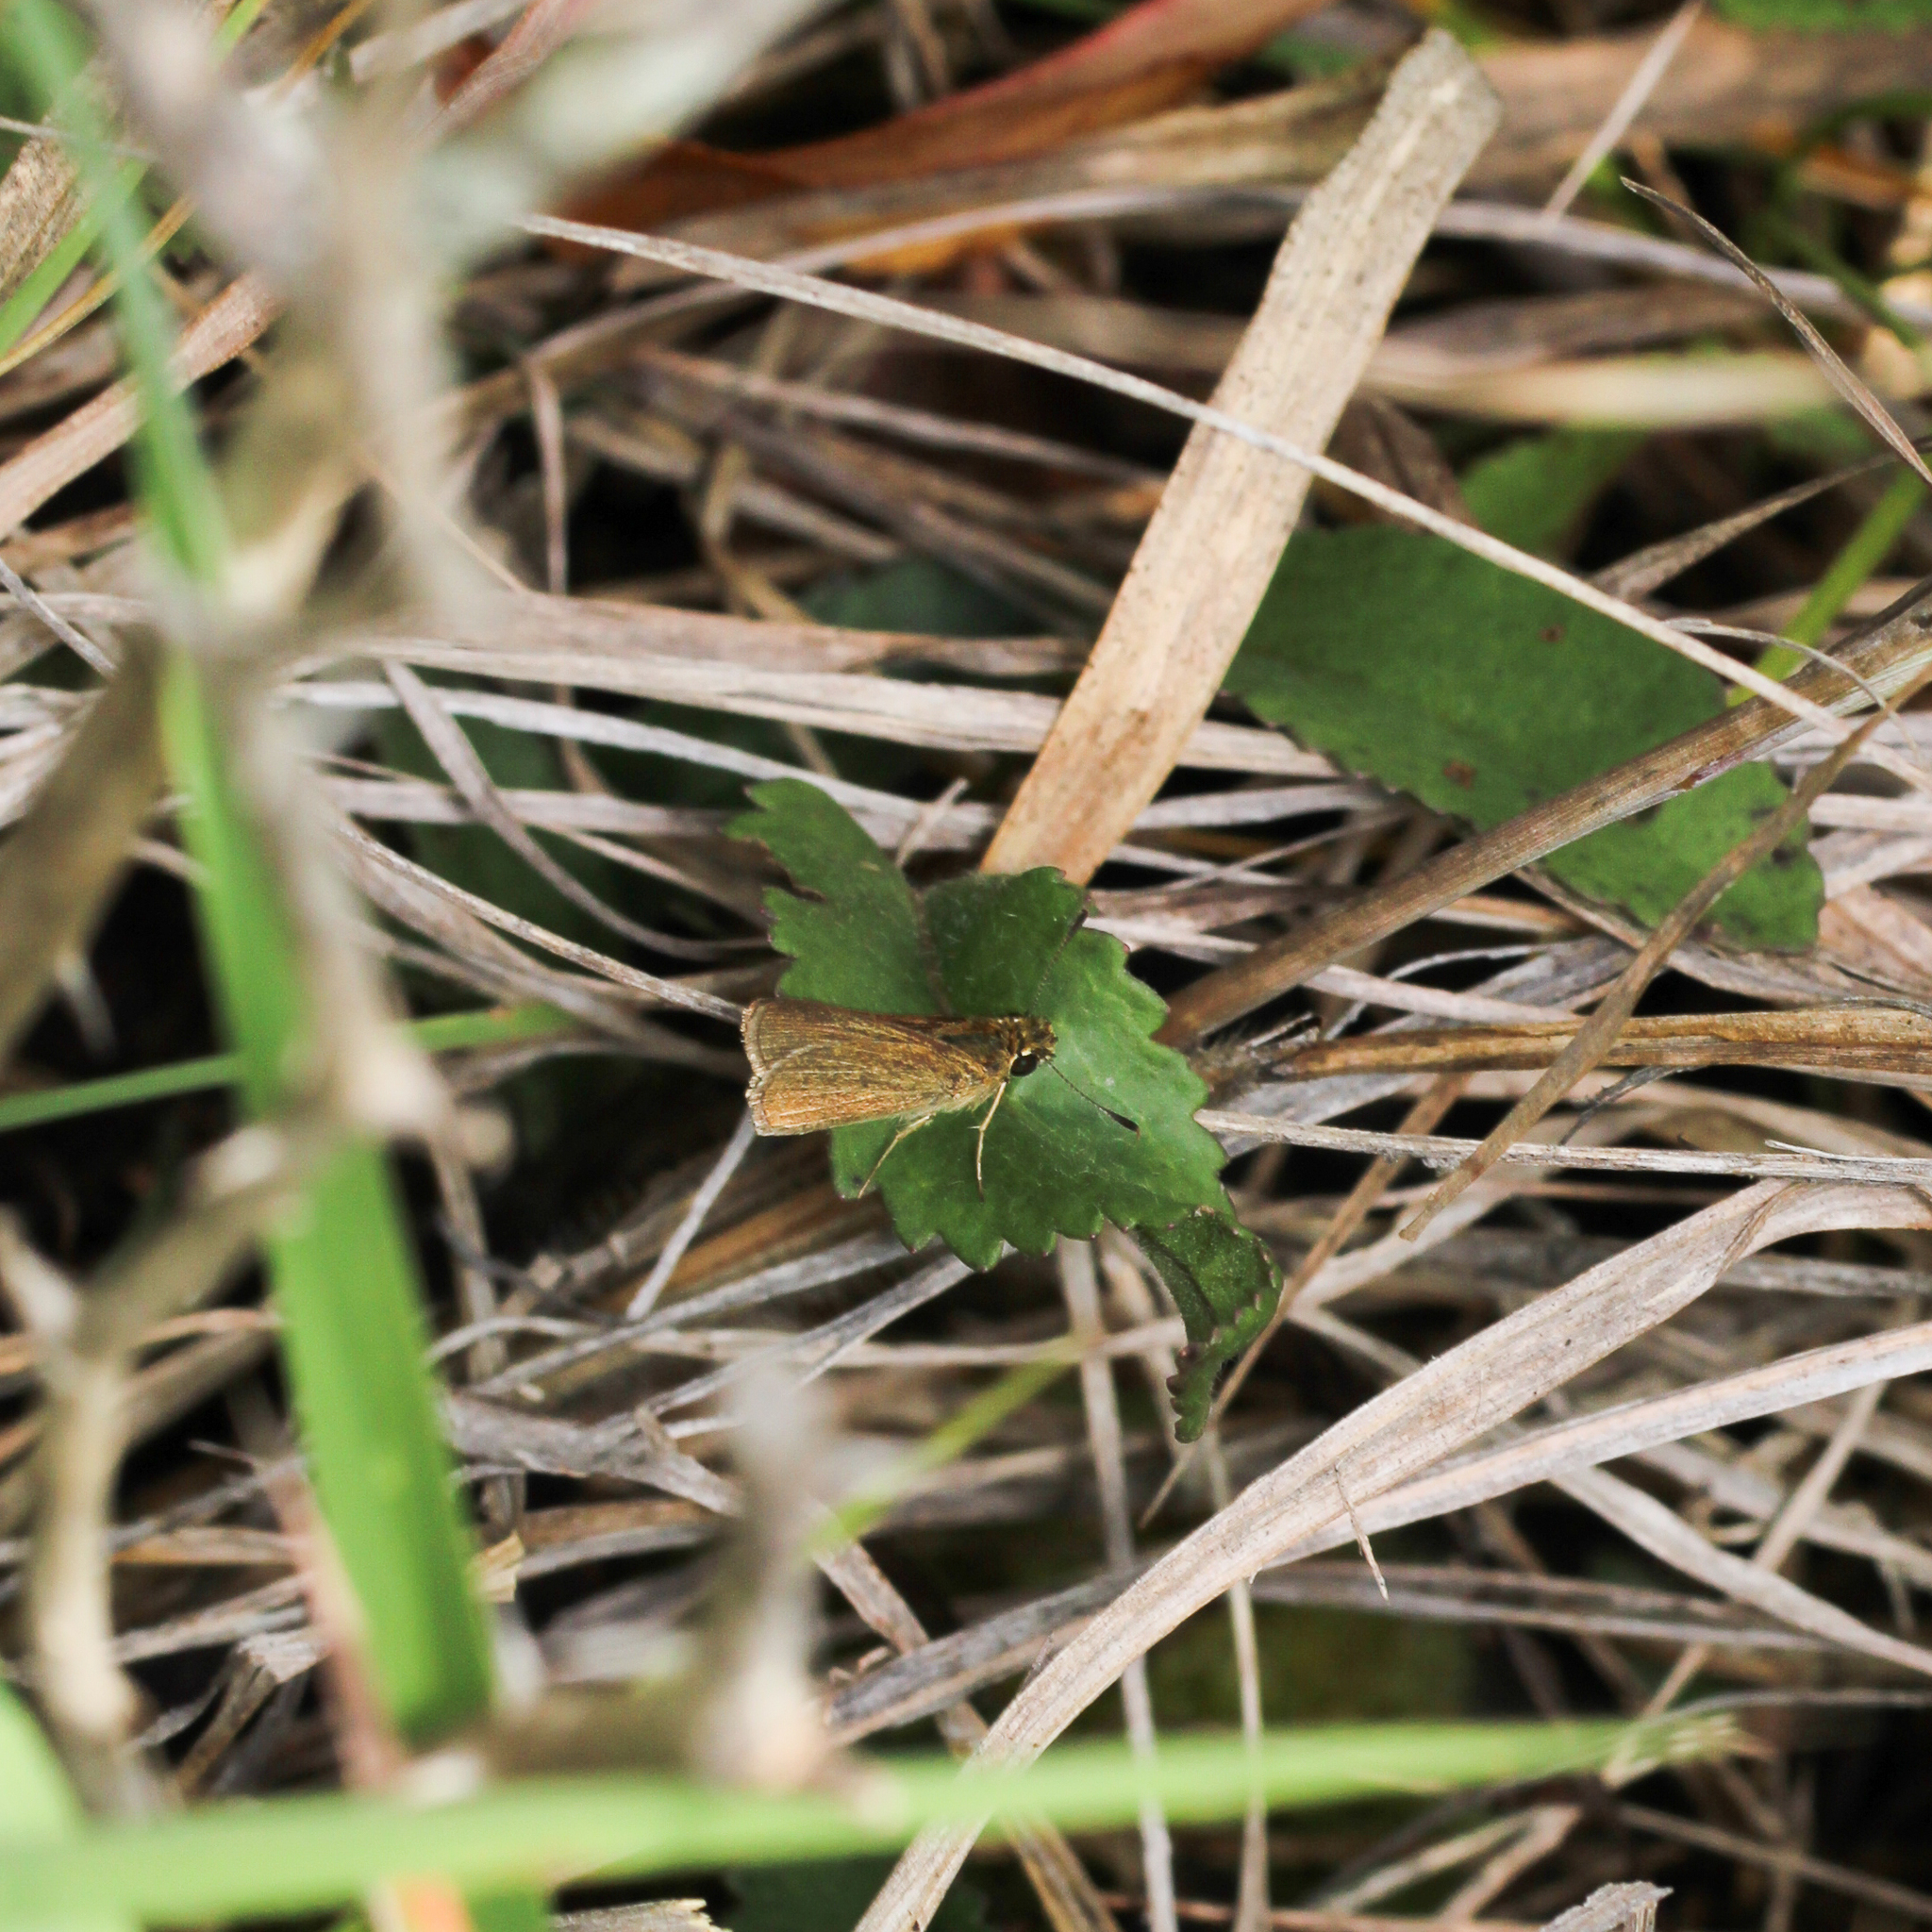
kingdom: Animalia
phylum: Arthropoda
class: Insecta
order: Lepidoptera
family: Hesperiidae
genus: Nastra
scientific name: Nastra lherminier
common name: Swarthy skipper
